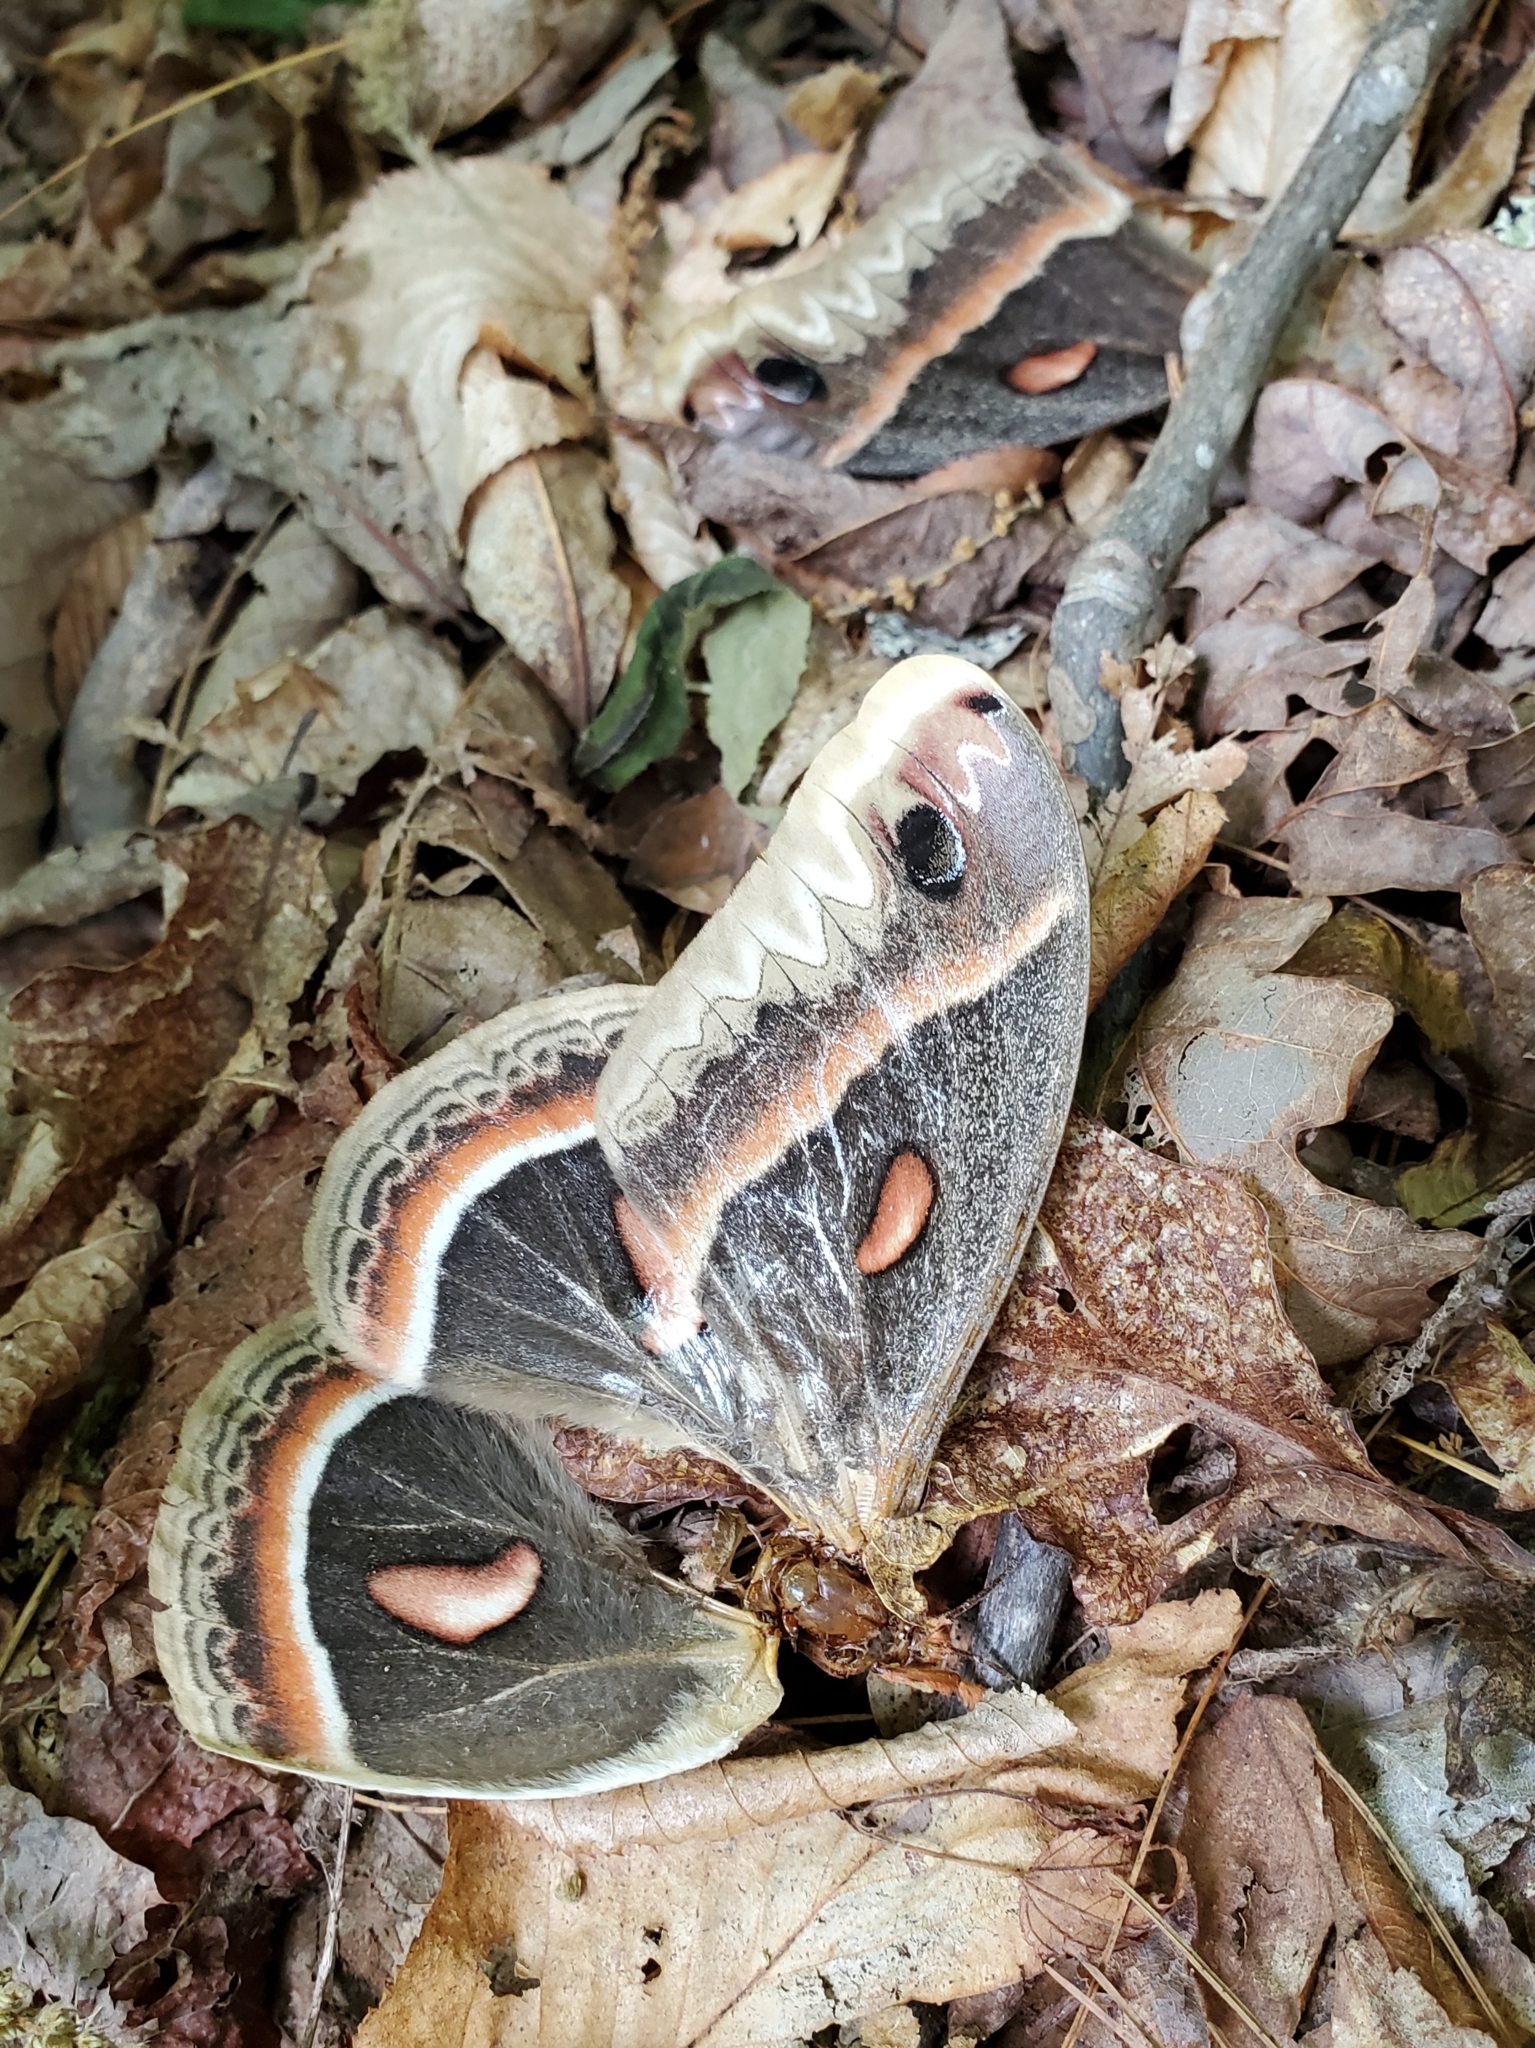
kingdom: Animalia
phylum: Arthropoda
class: Insecta
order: Lepidoptera
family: Saturniidae
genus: Hyalophora
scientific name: Hyalophora cecropia
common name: Cecropia silkmoth
